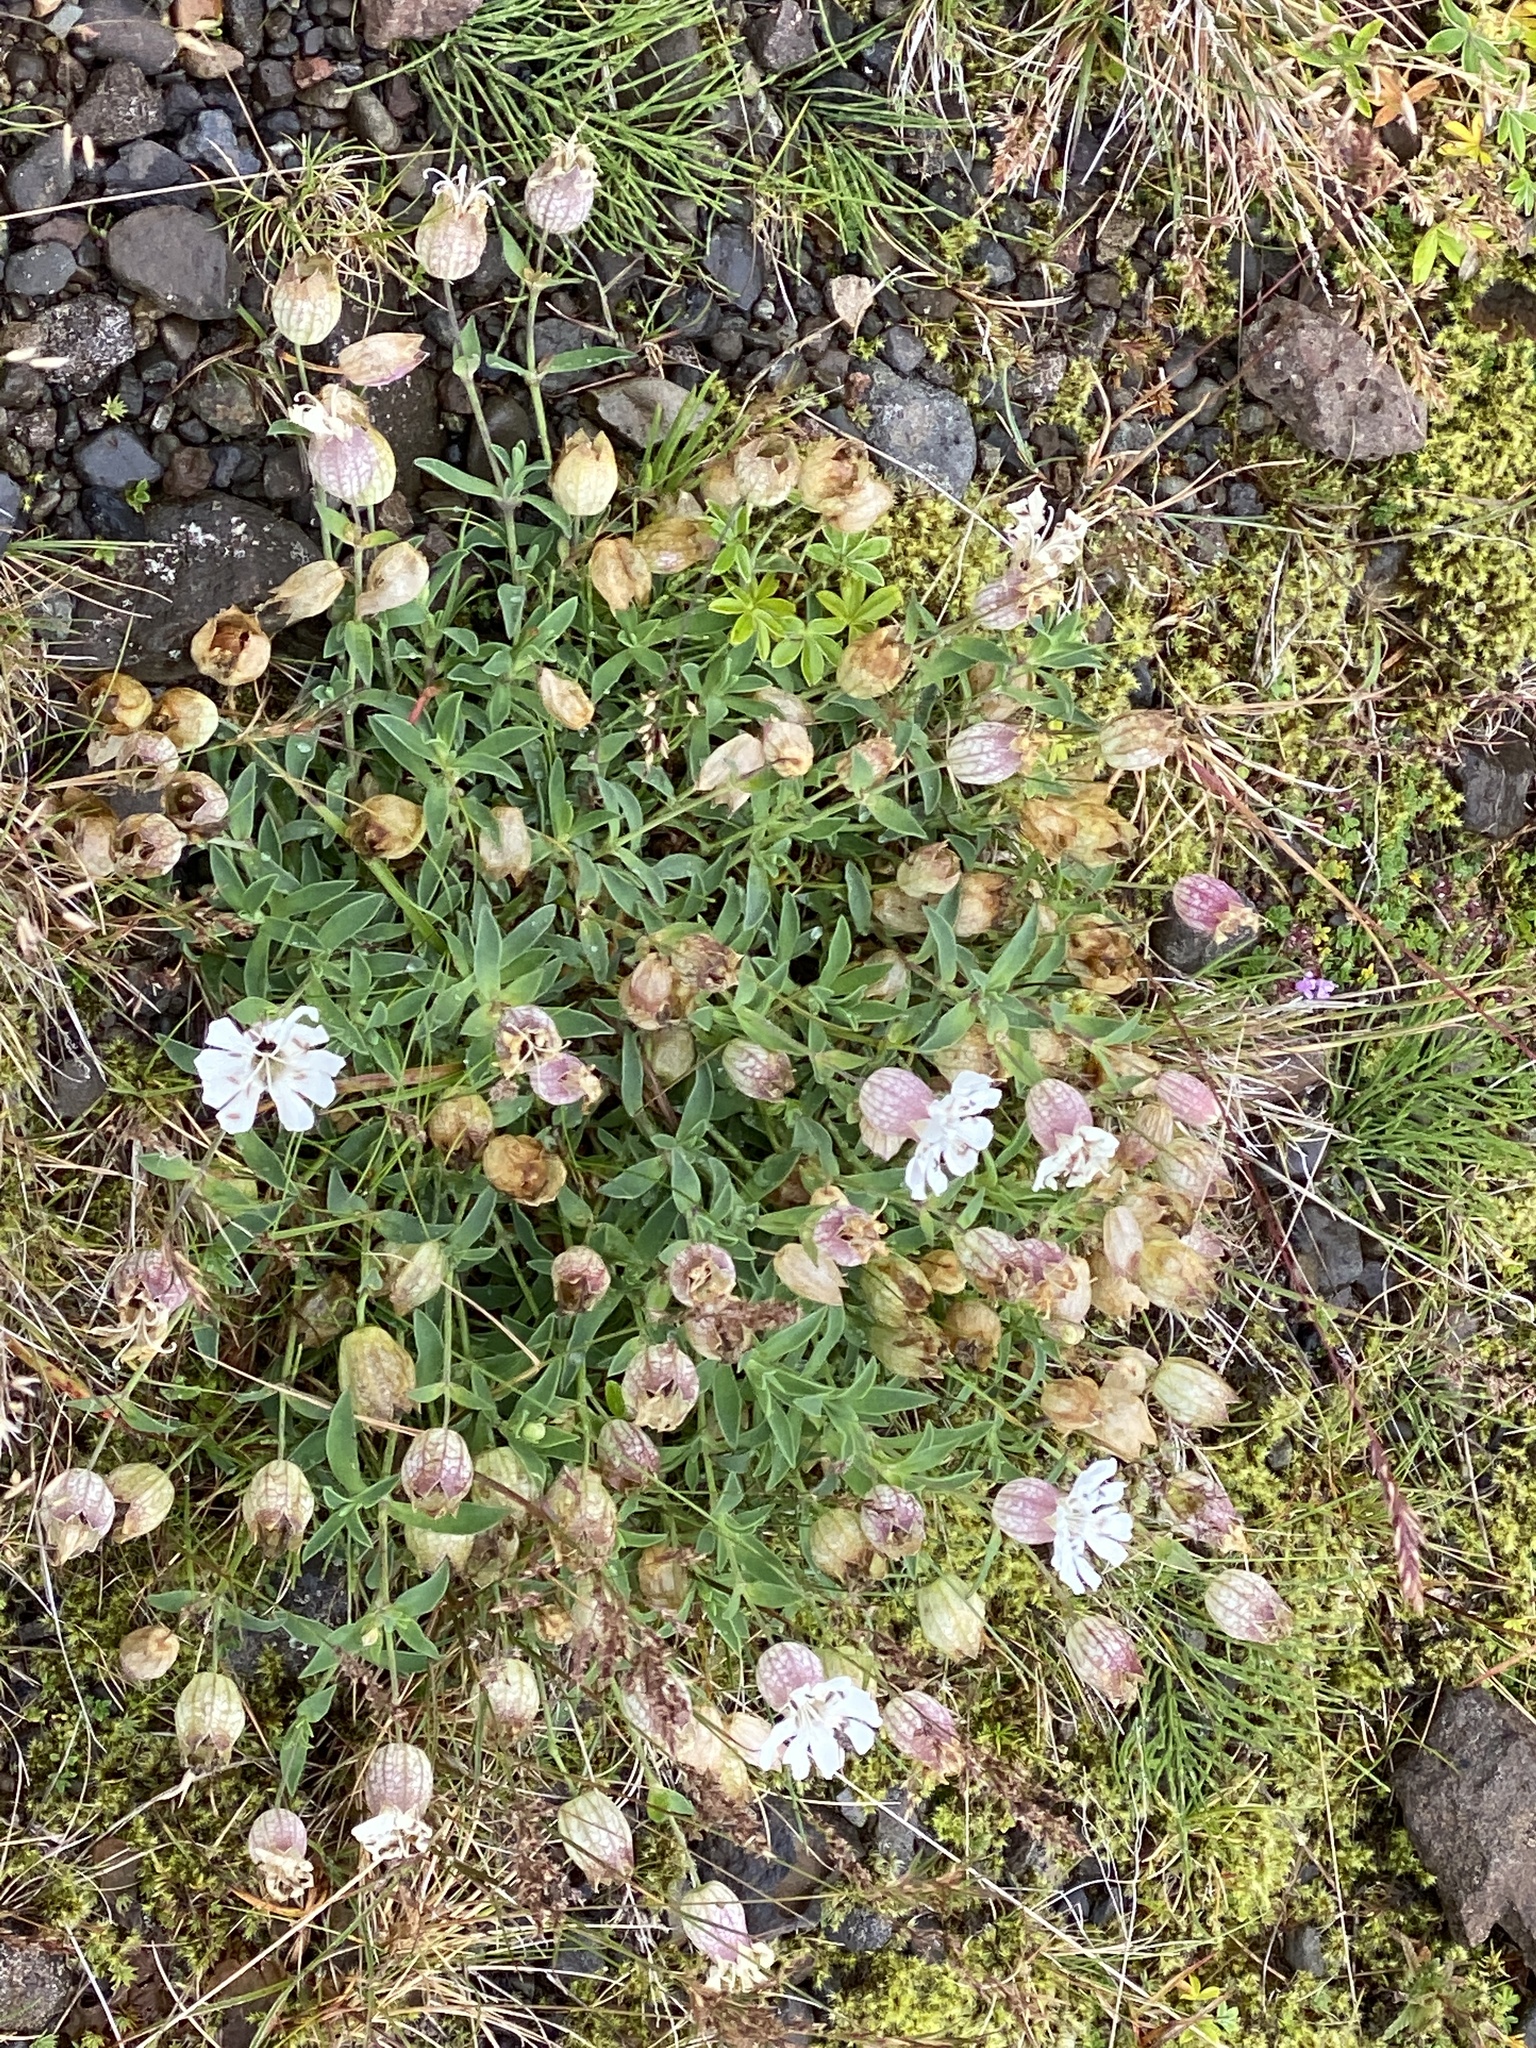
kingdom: Plantae
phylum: Tracheophyta
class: Magnoliopsida
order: Caryophyllales
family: Caryophyllaceae
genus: Silene
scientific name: Silene uniflora
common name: Sea campion
